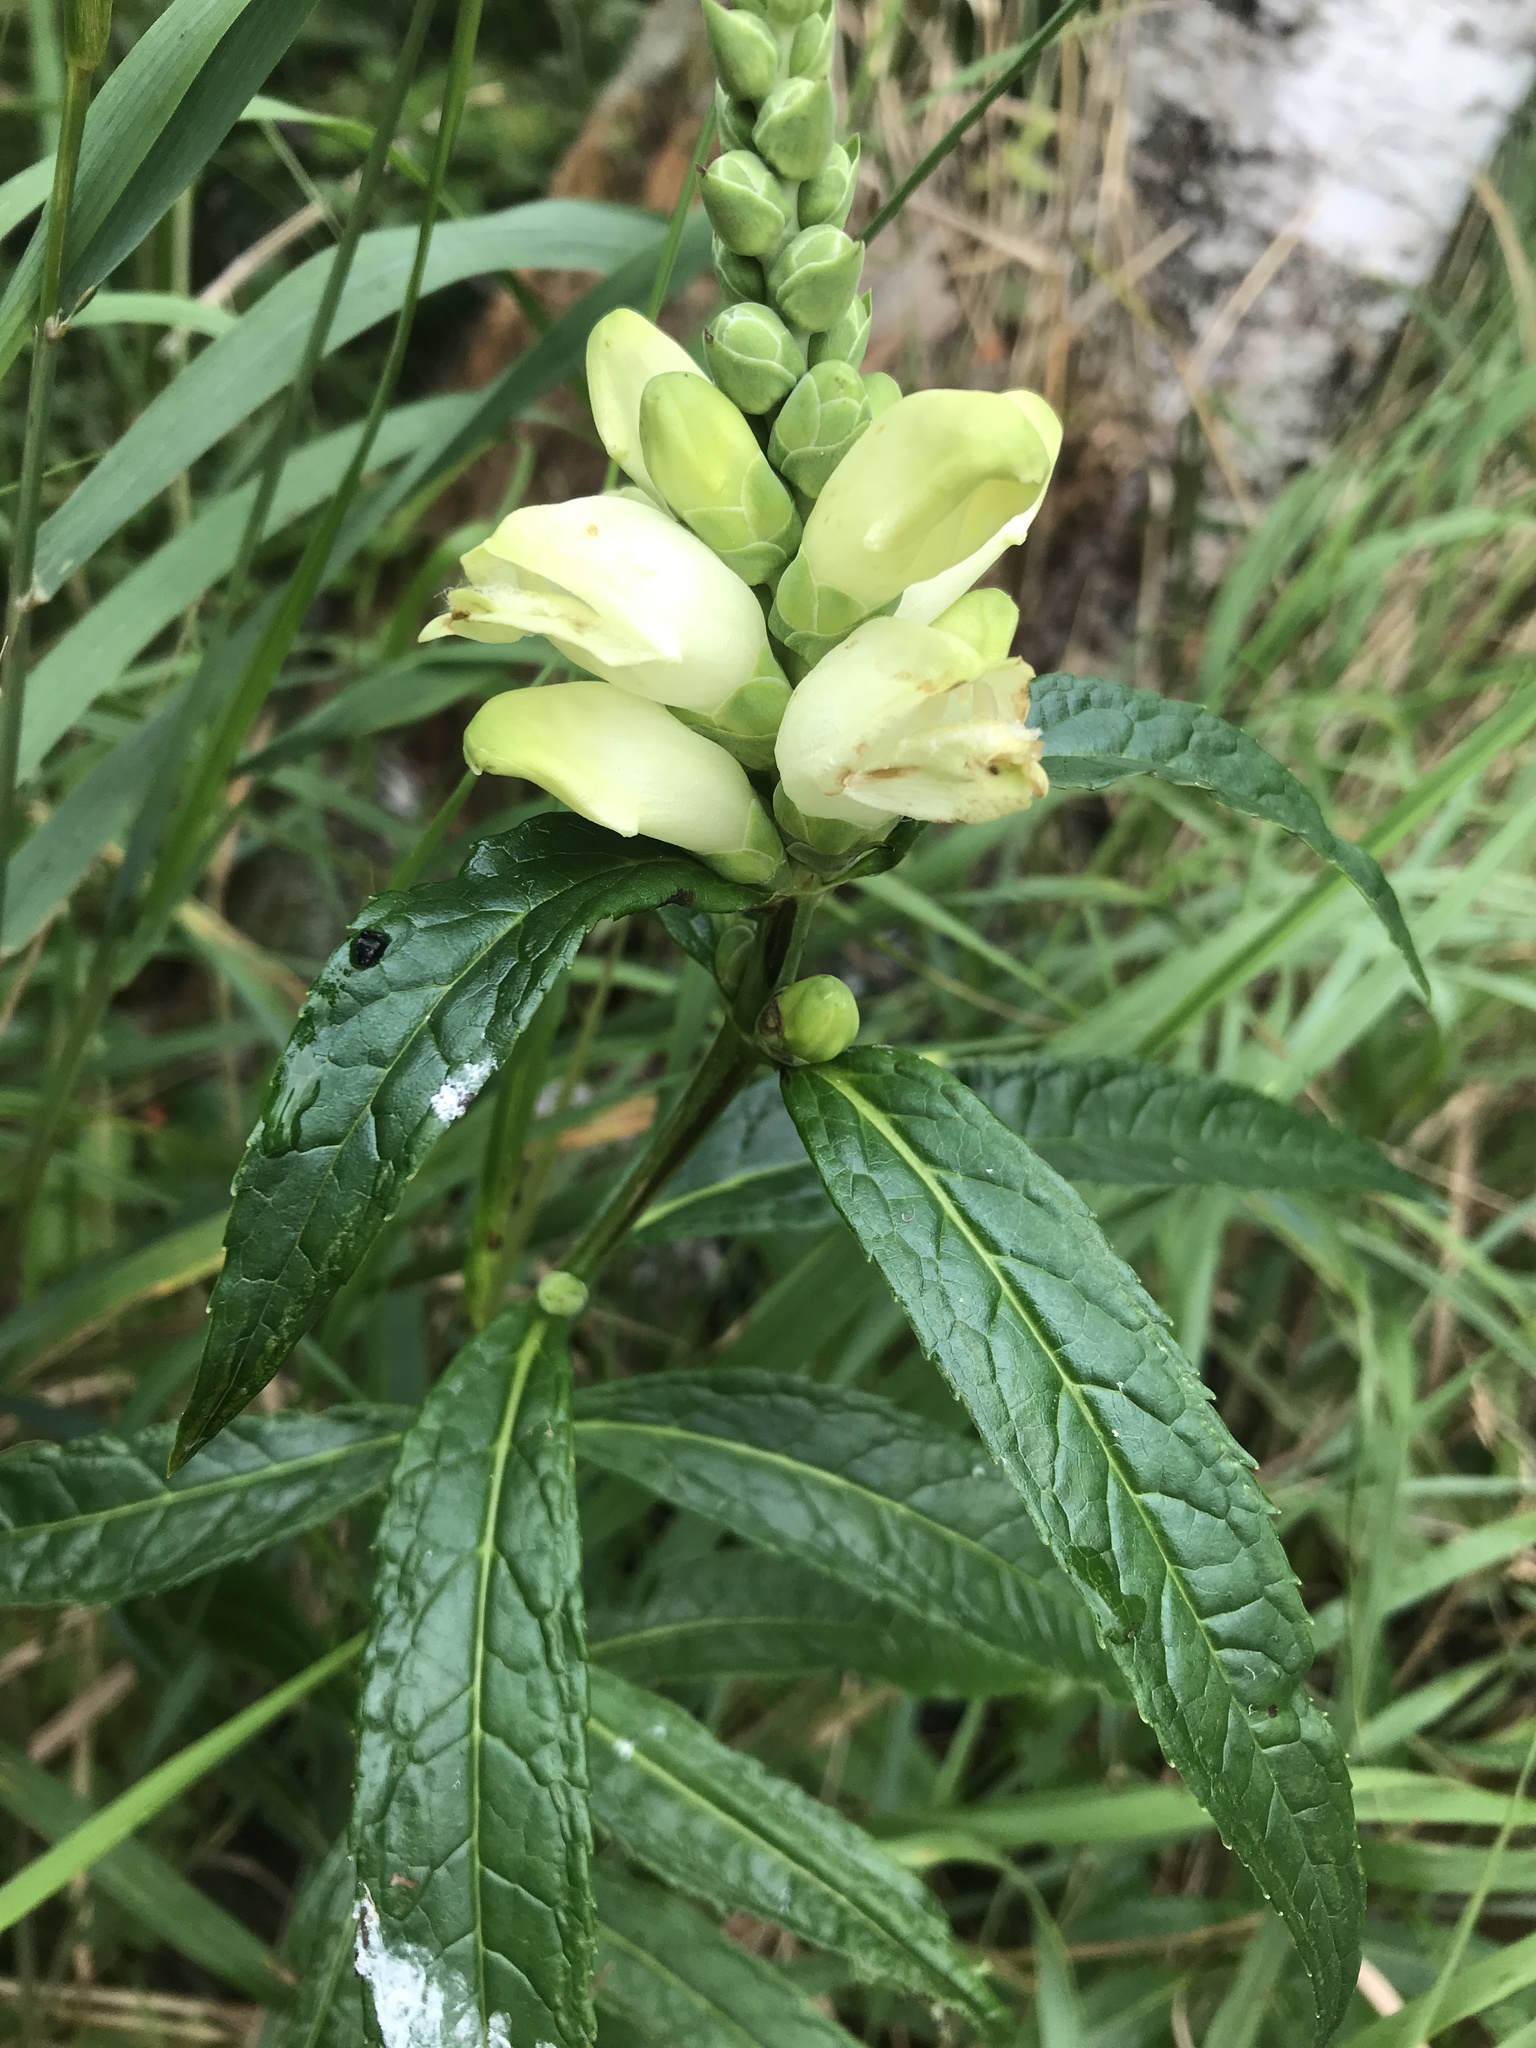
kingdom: Plantae
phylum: Tracheophyta
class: Magnoliopsida
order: Lamiales
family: Plantaginaceae
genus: Chelone
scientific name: Chelone glabra
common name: Snakehead
